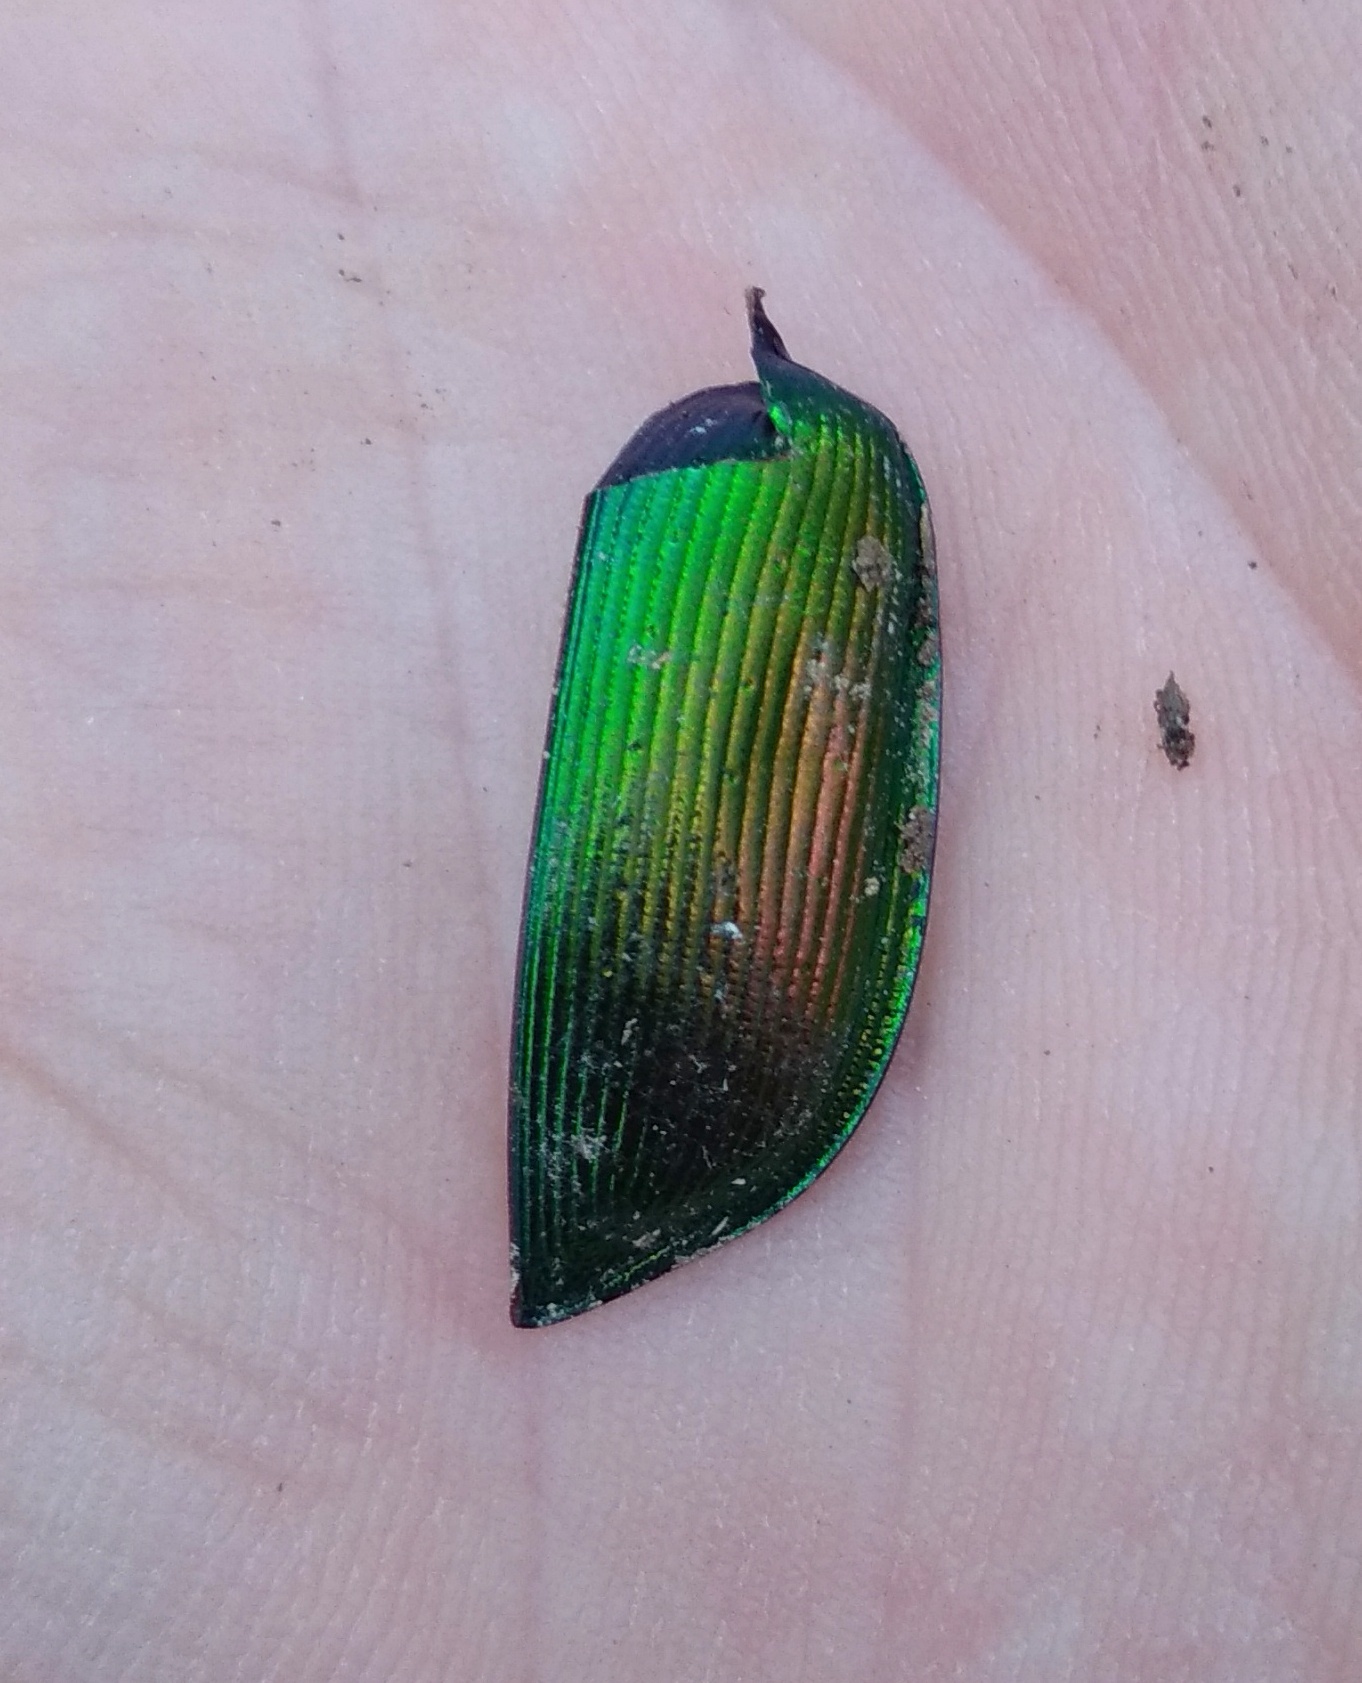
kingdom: Animalia
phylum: Arthropoda
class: Insecta
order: Coleoptera
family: Carabidae
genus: Calosoma
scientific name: Calosoma sycophanta
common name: Forest caterpillar hunter
